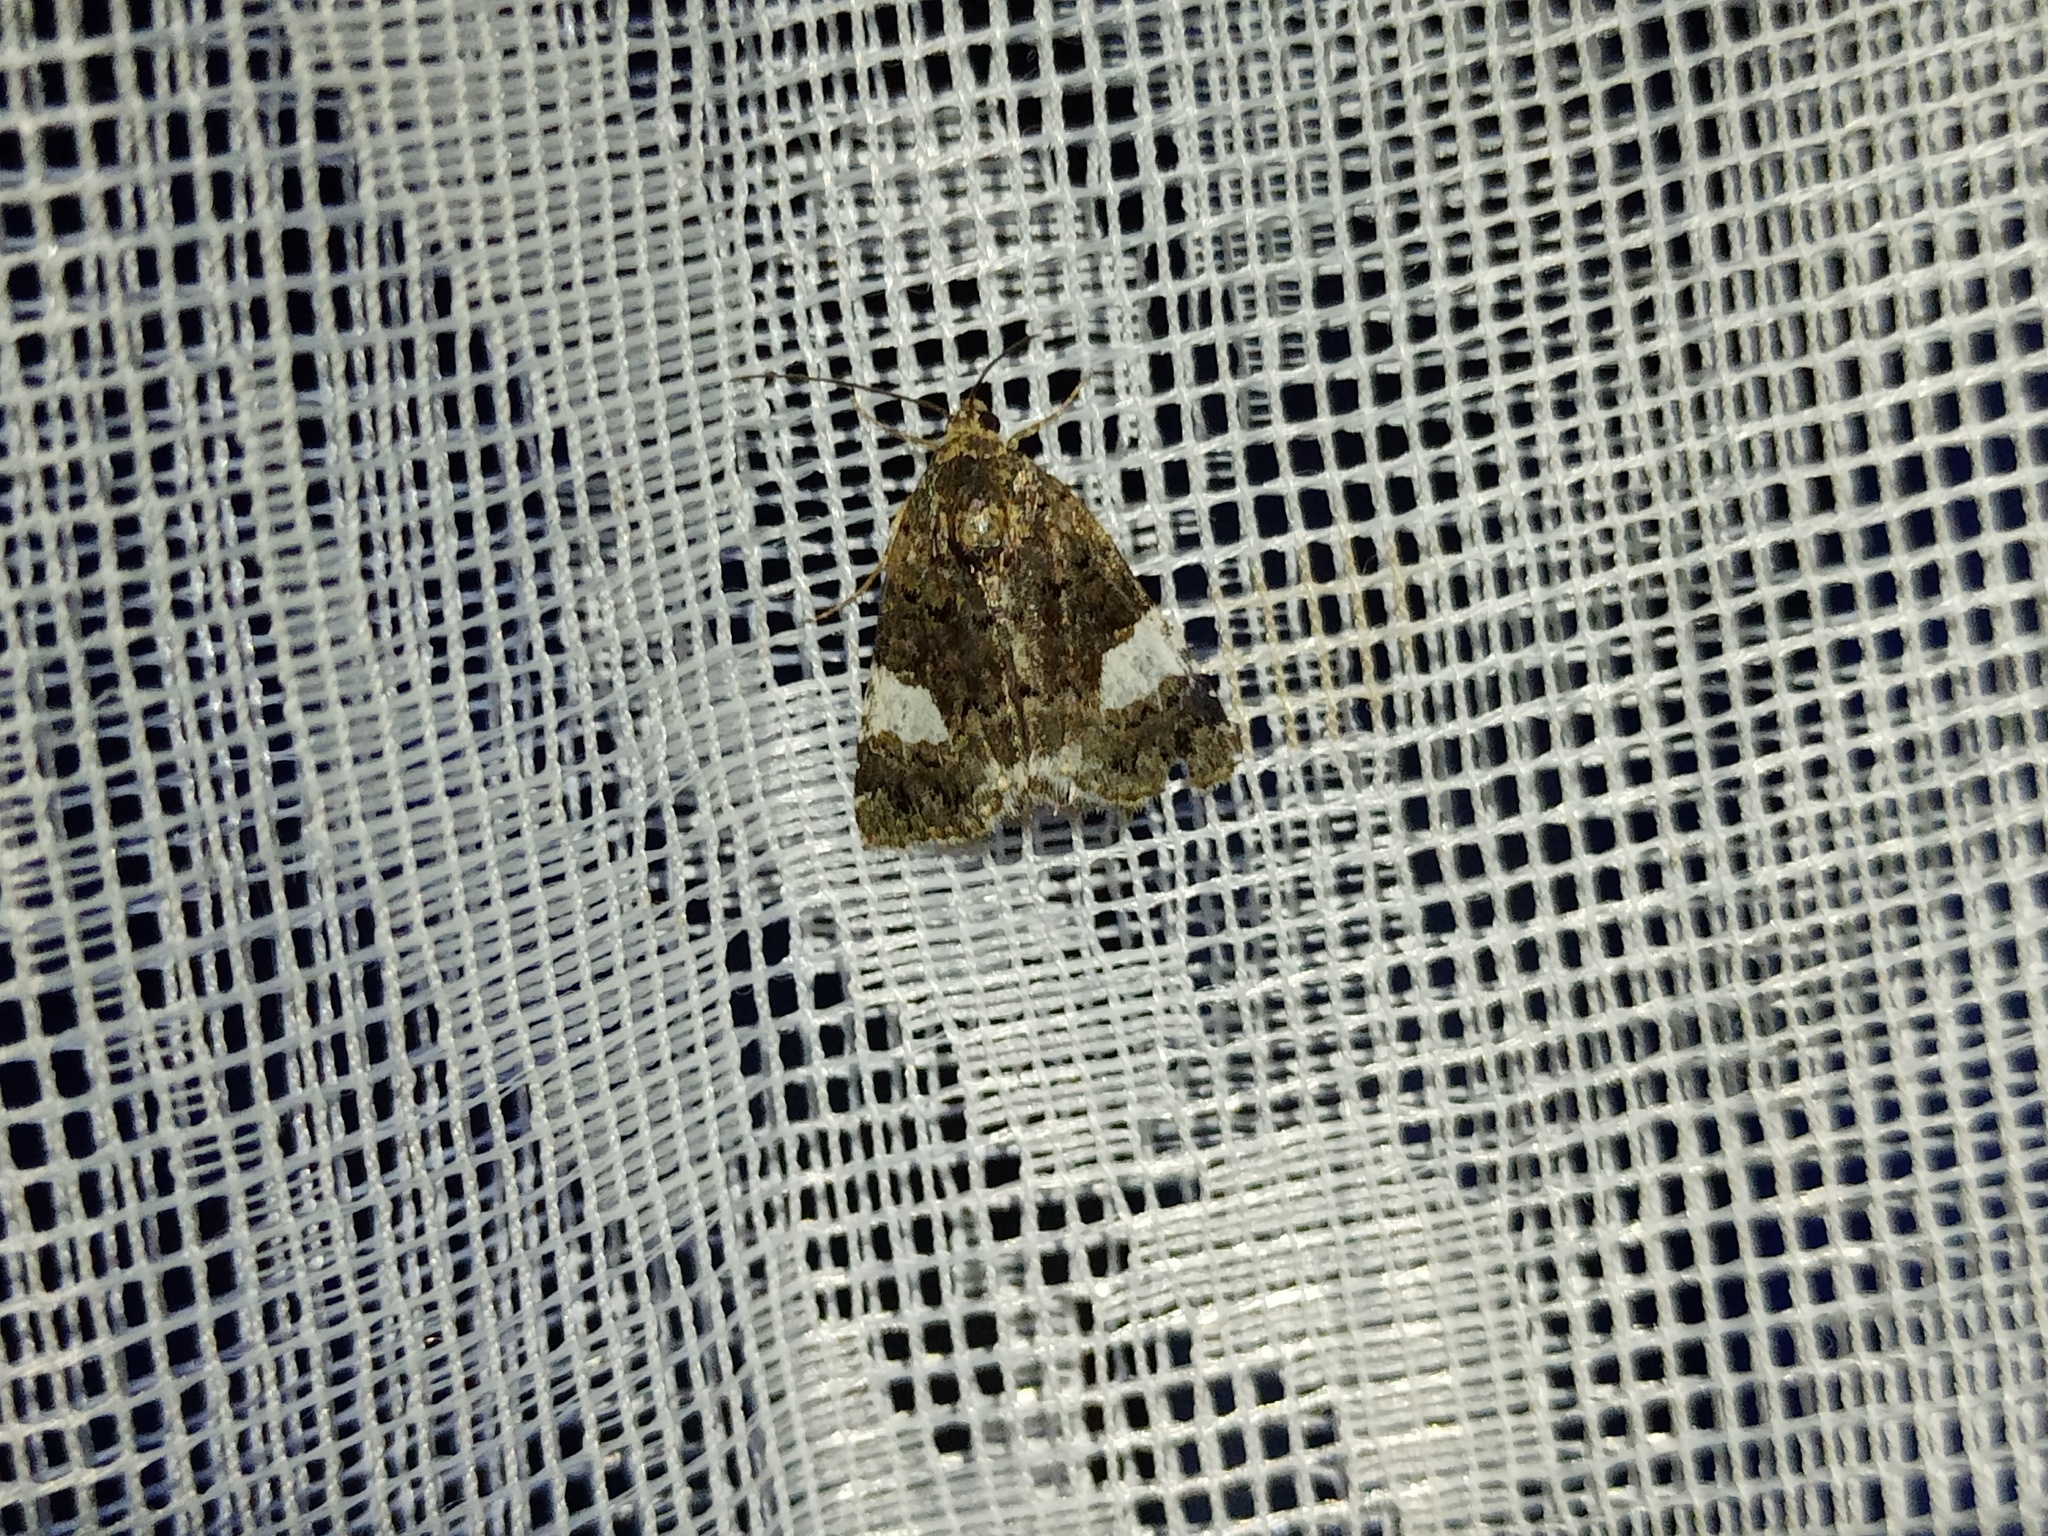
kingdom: Animalia
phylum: Arthropoda
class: Insecta
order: Lepidoptera
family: Erebidae
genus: Tyta
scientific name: Tyta luctuosa
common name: Four-spotted
